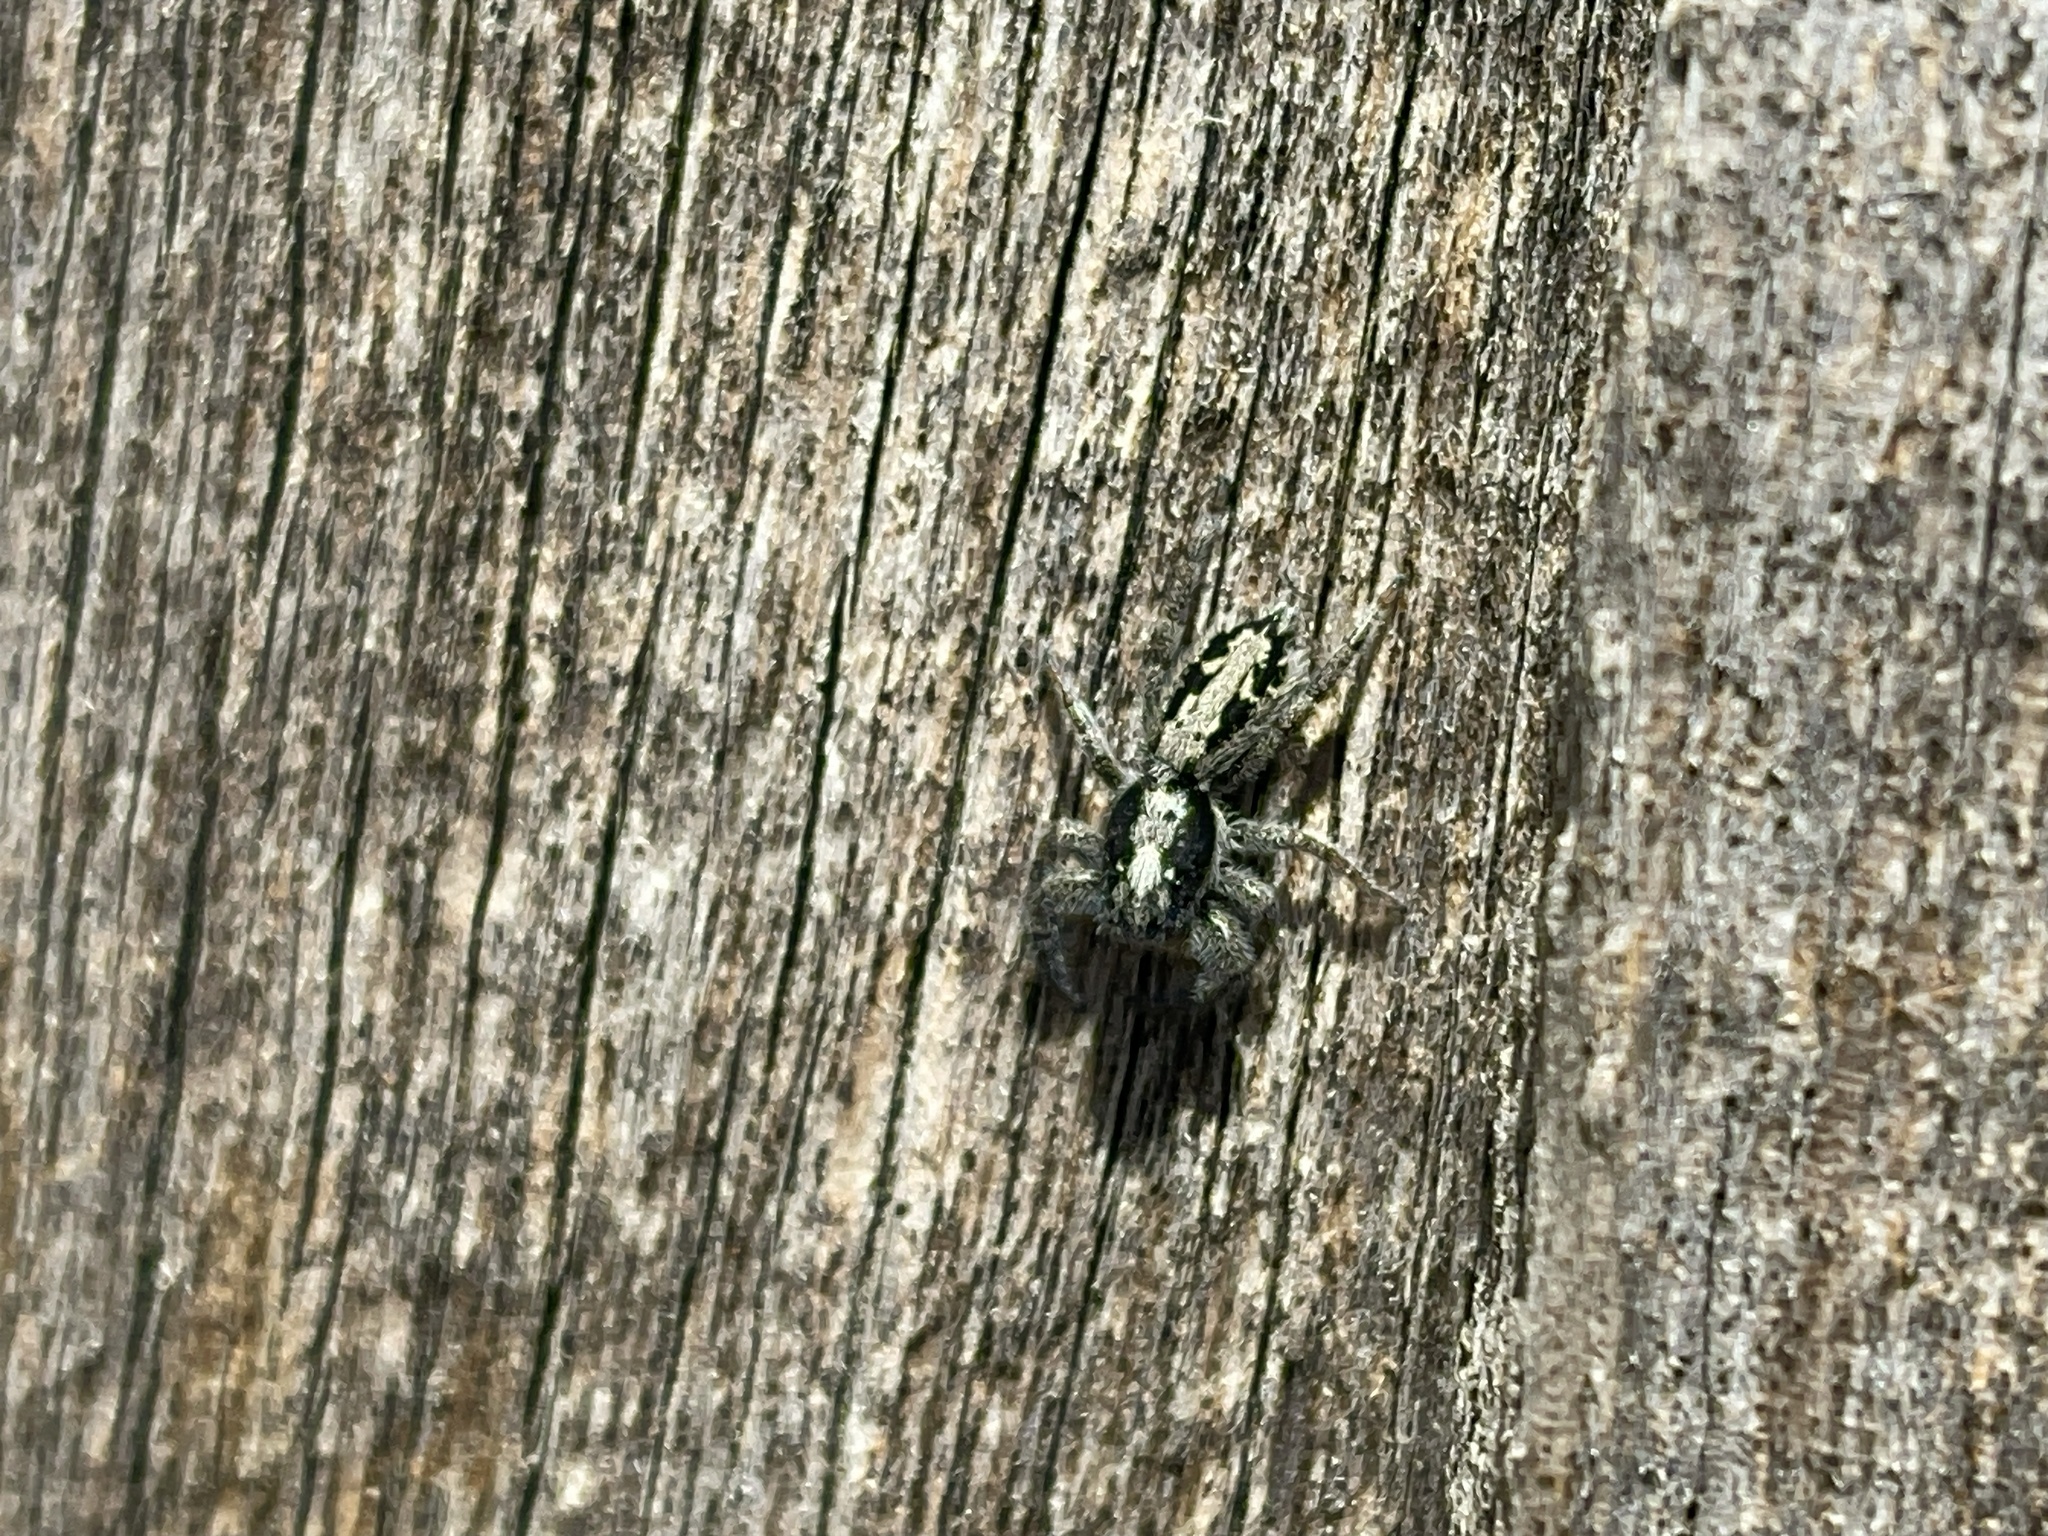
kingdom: Animalia
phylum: Arthropoda
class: Arachnida
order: Araneae
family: Salticidae
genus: Ocrisiona
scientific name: Ocrisiona leucocomis
